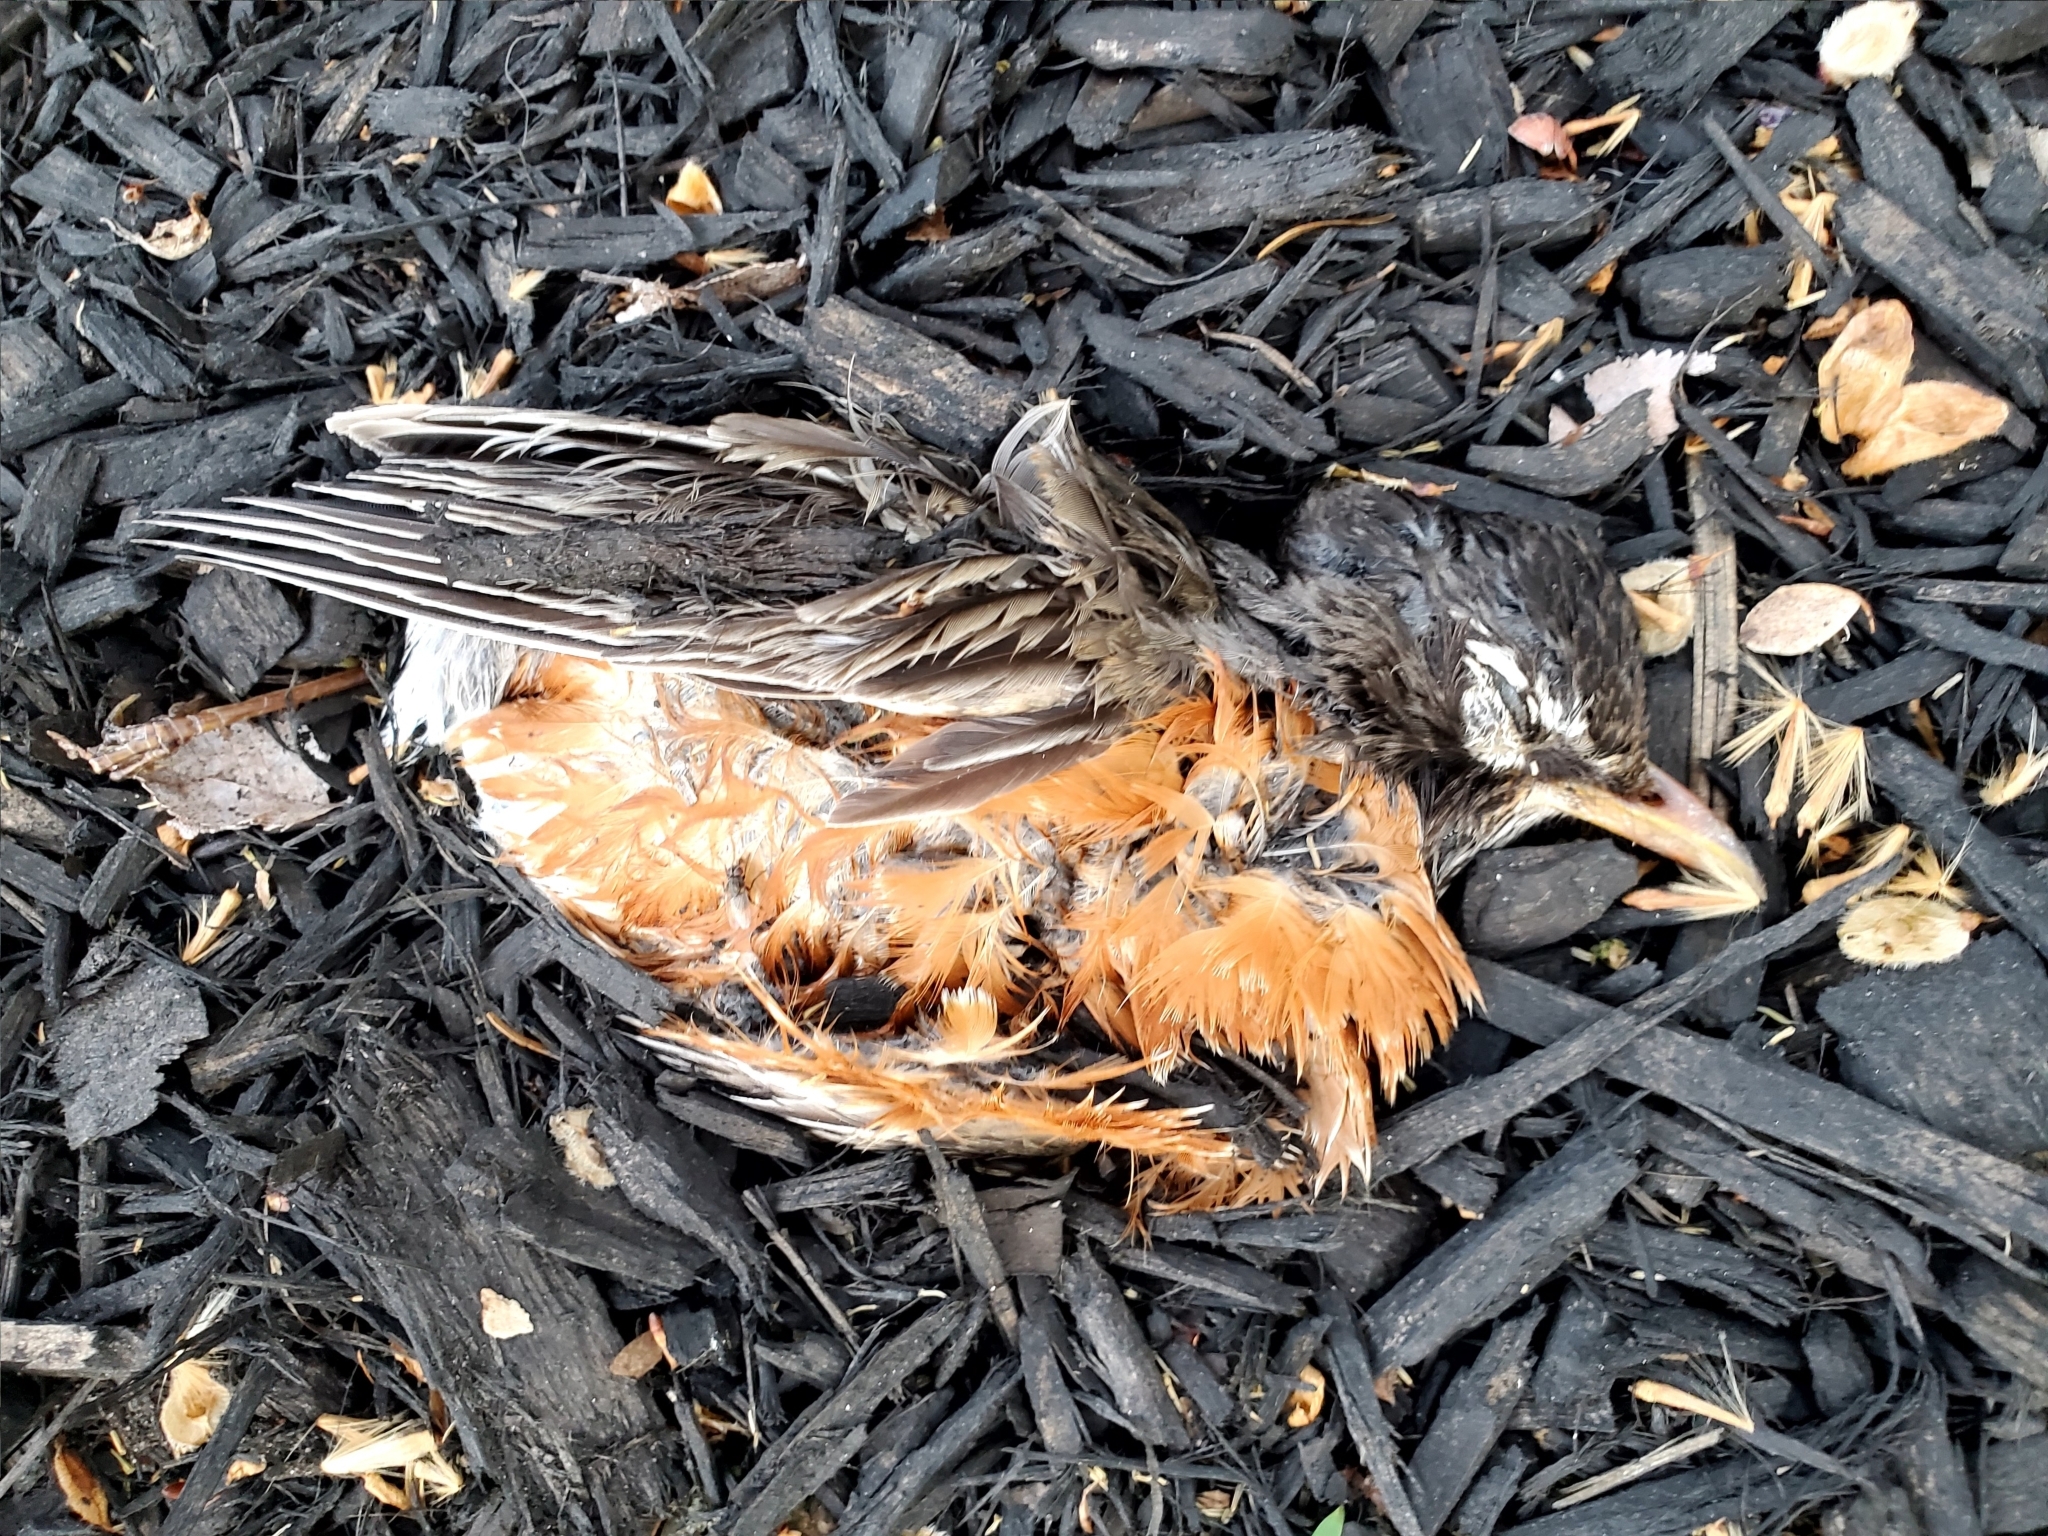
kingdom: Animalia
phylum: Chordata
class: Aves
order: Passeriformes
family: Turdidae
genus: Turdus
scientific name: Turdus migratorius
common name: American robin
